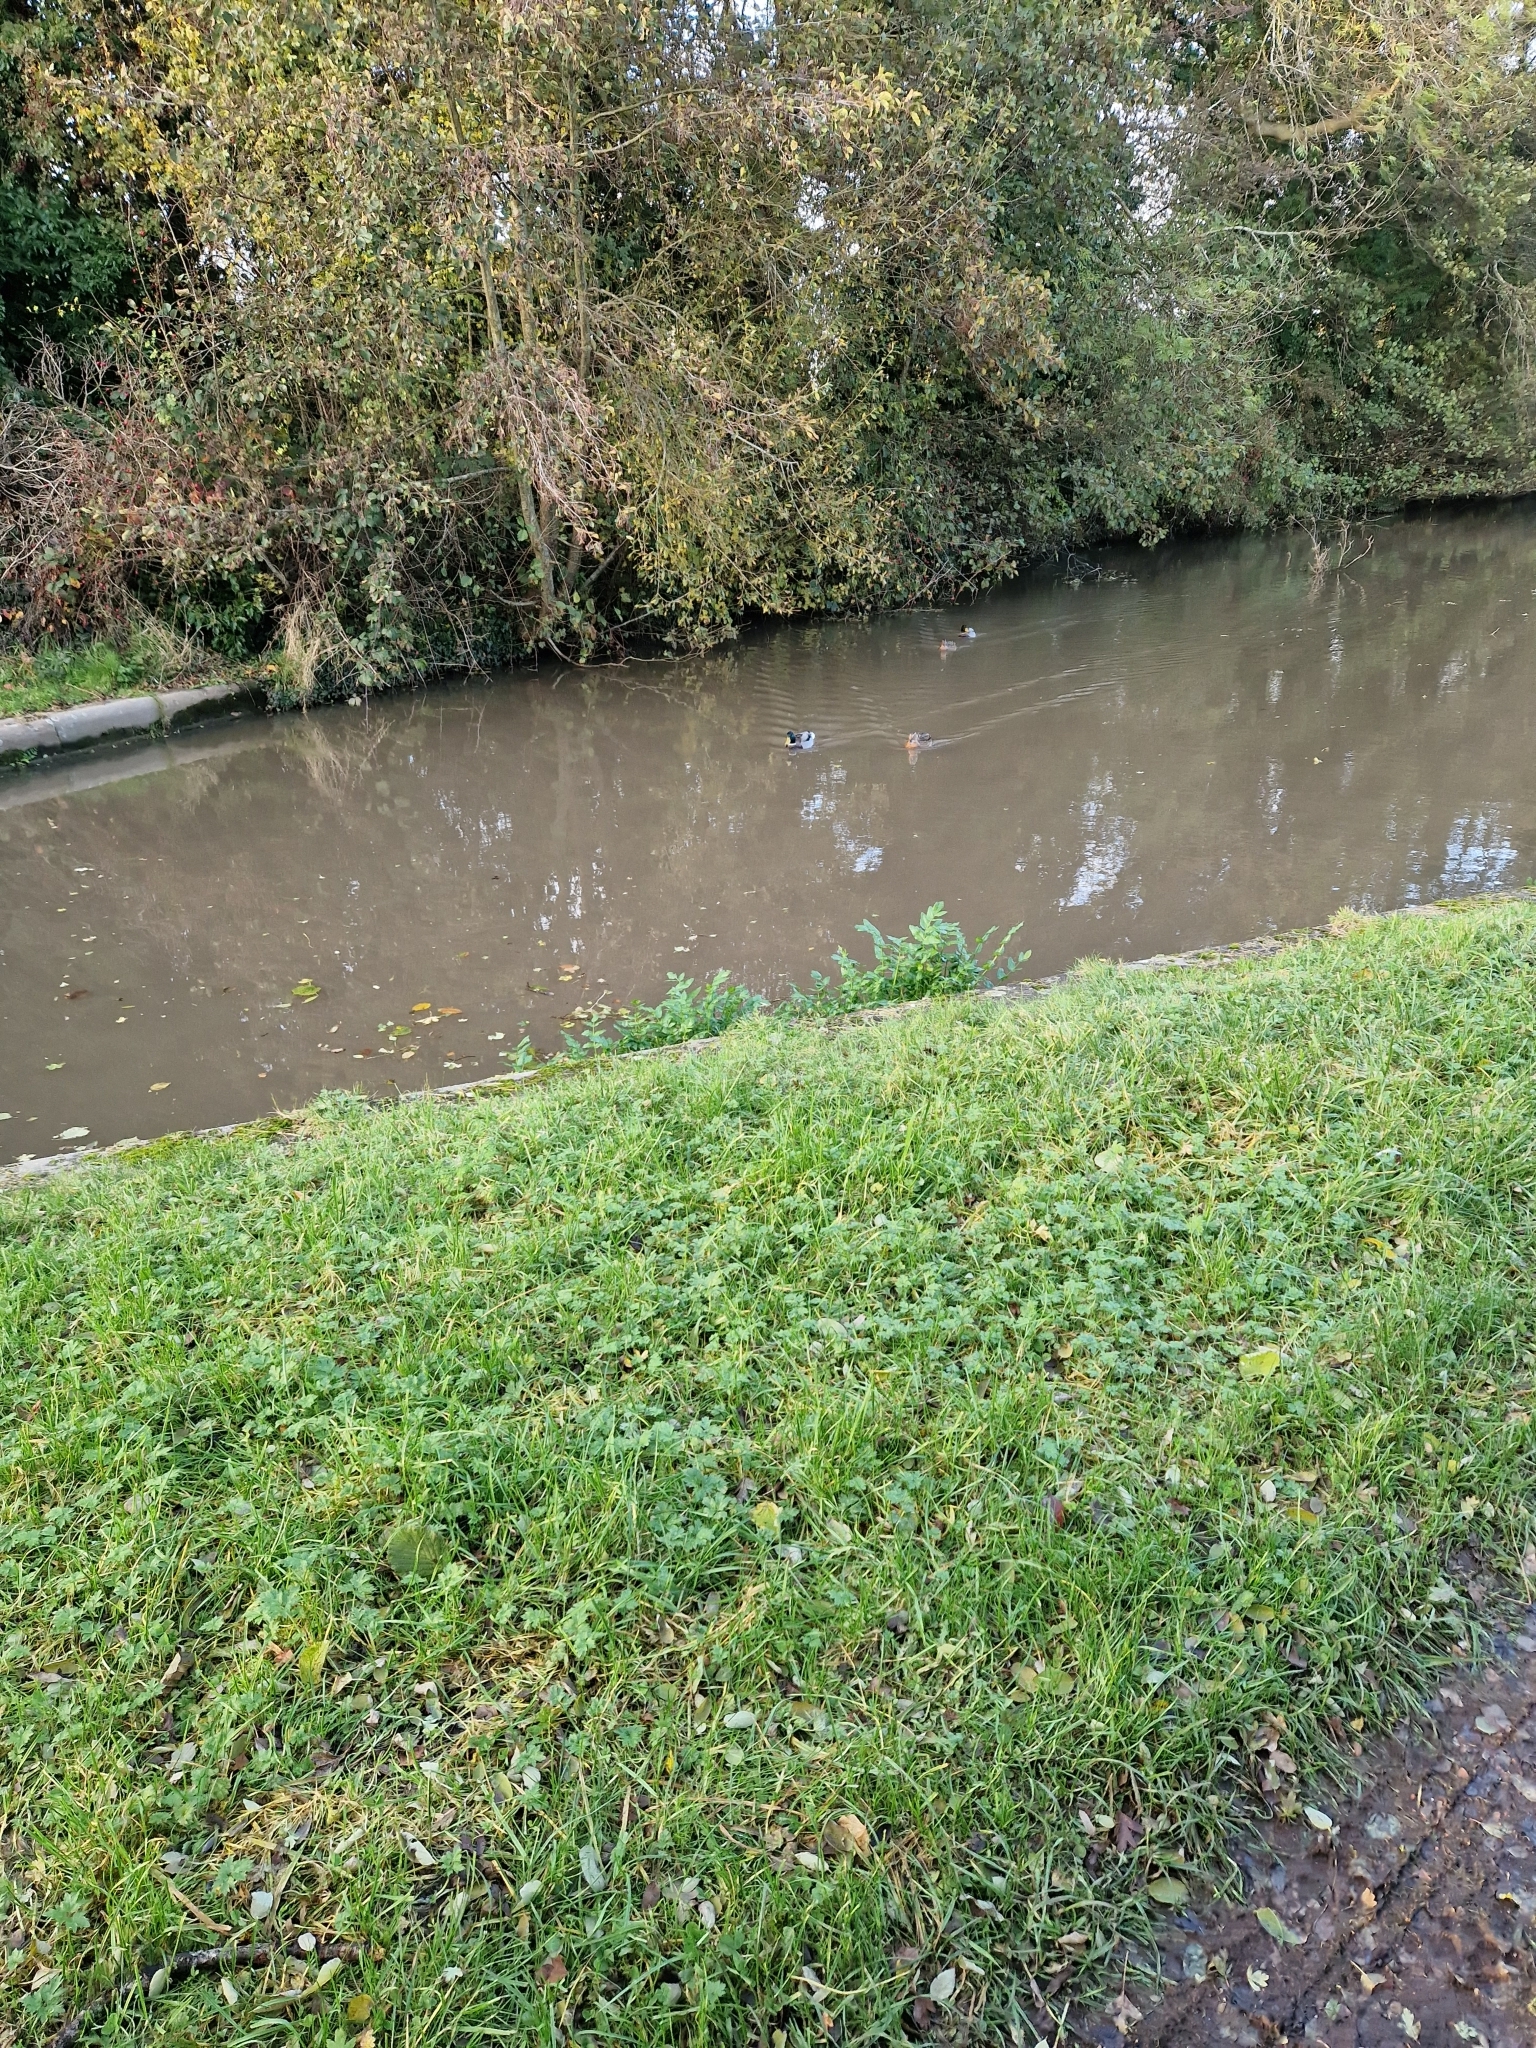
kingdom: Animalia
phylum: Chordata
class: Aves
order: Anseriformes
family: Anatidae
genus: Anas
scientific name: Anas platyrhynchos
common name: Mallard
